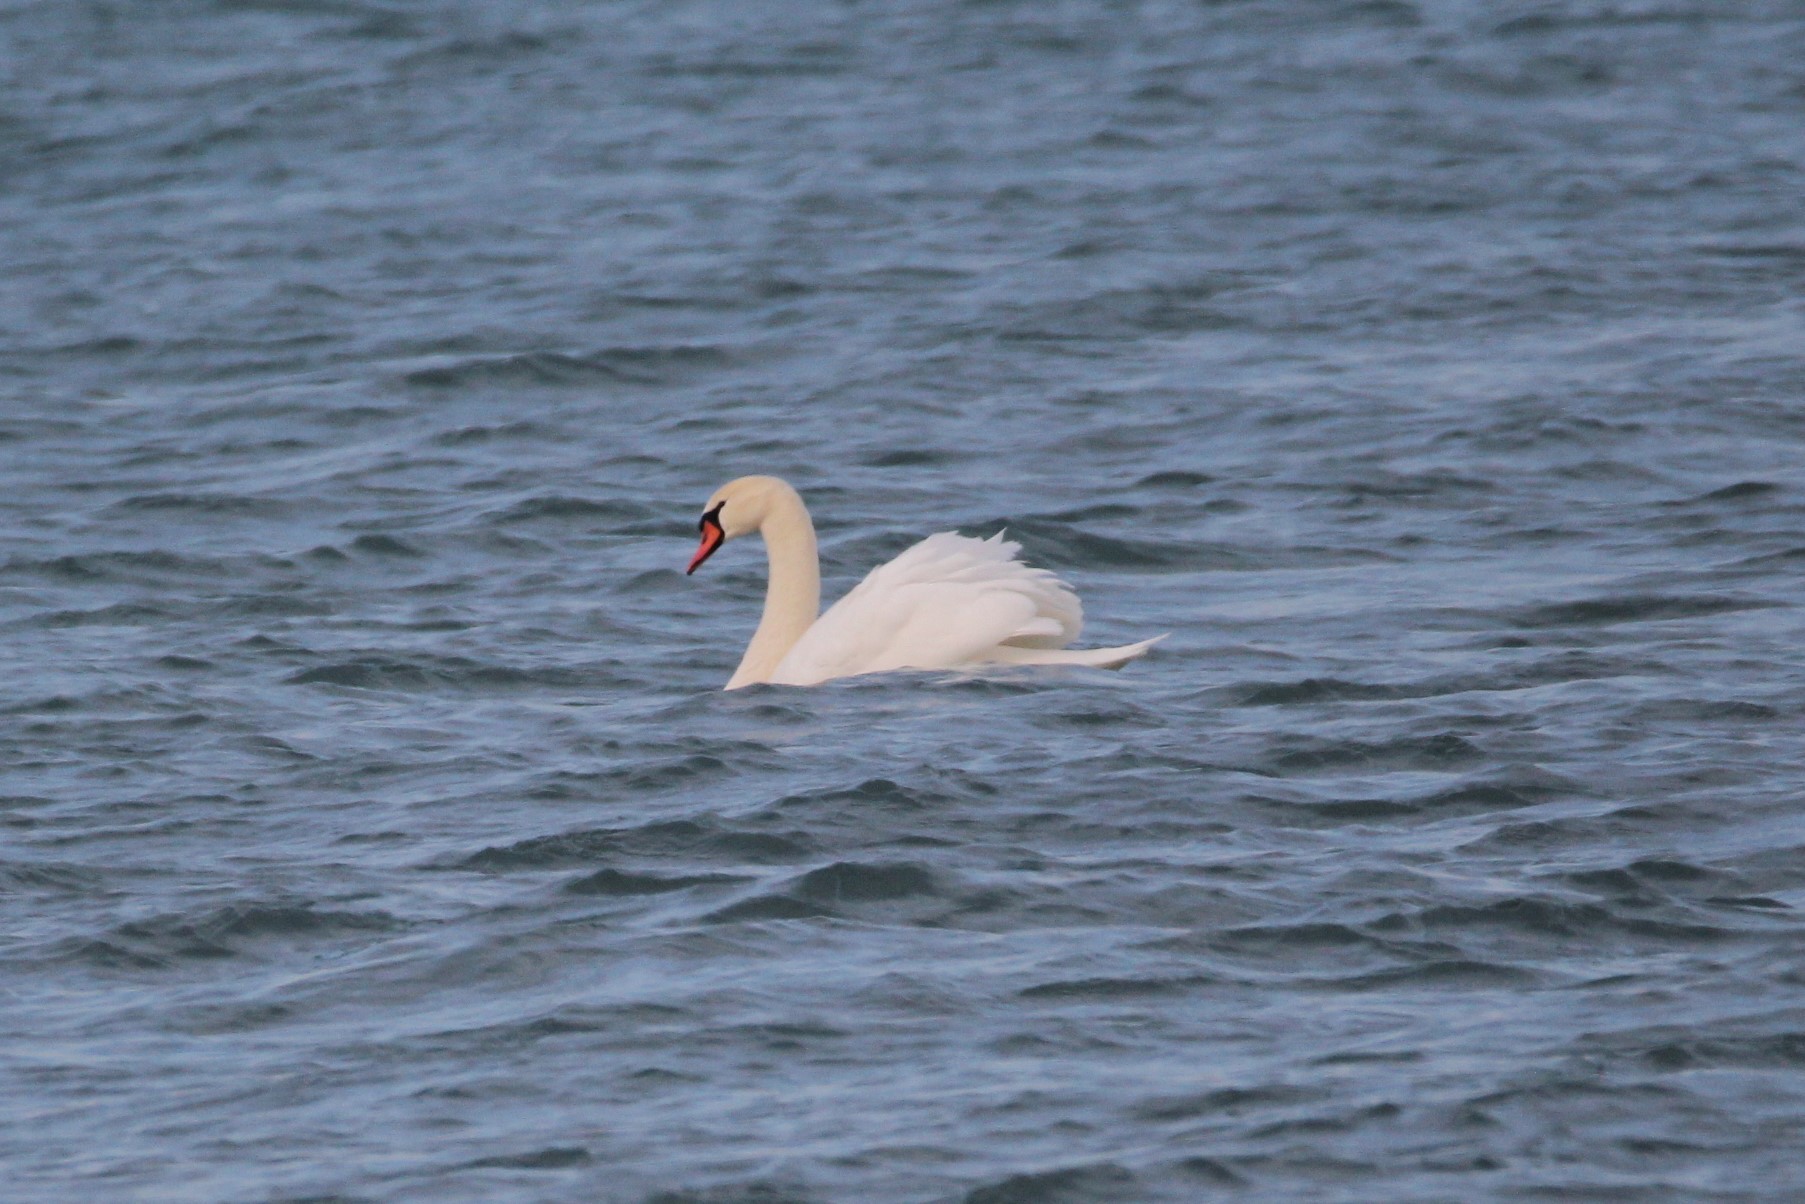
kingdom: Animalia
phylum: Chordata
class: Aves
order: Anseriformes
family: Anatidae
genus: Cygnus
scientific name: Cygnus olor
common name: Mute swan
